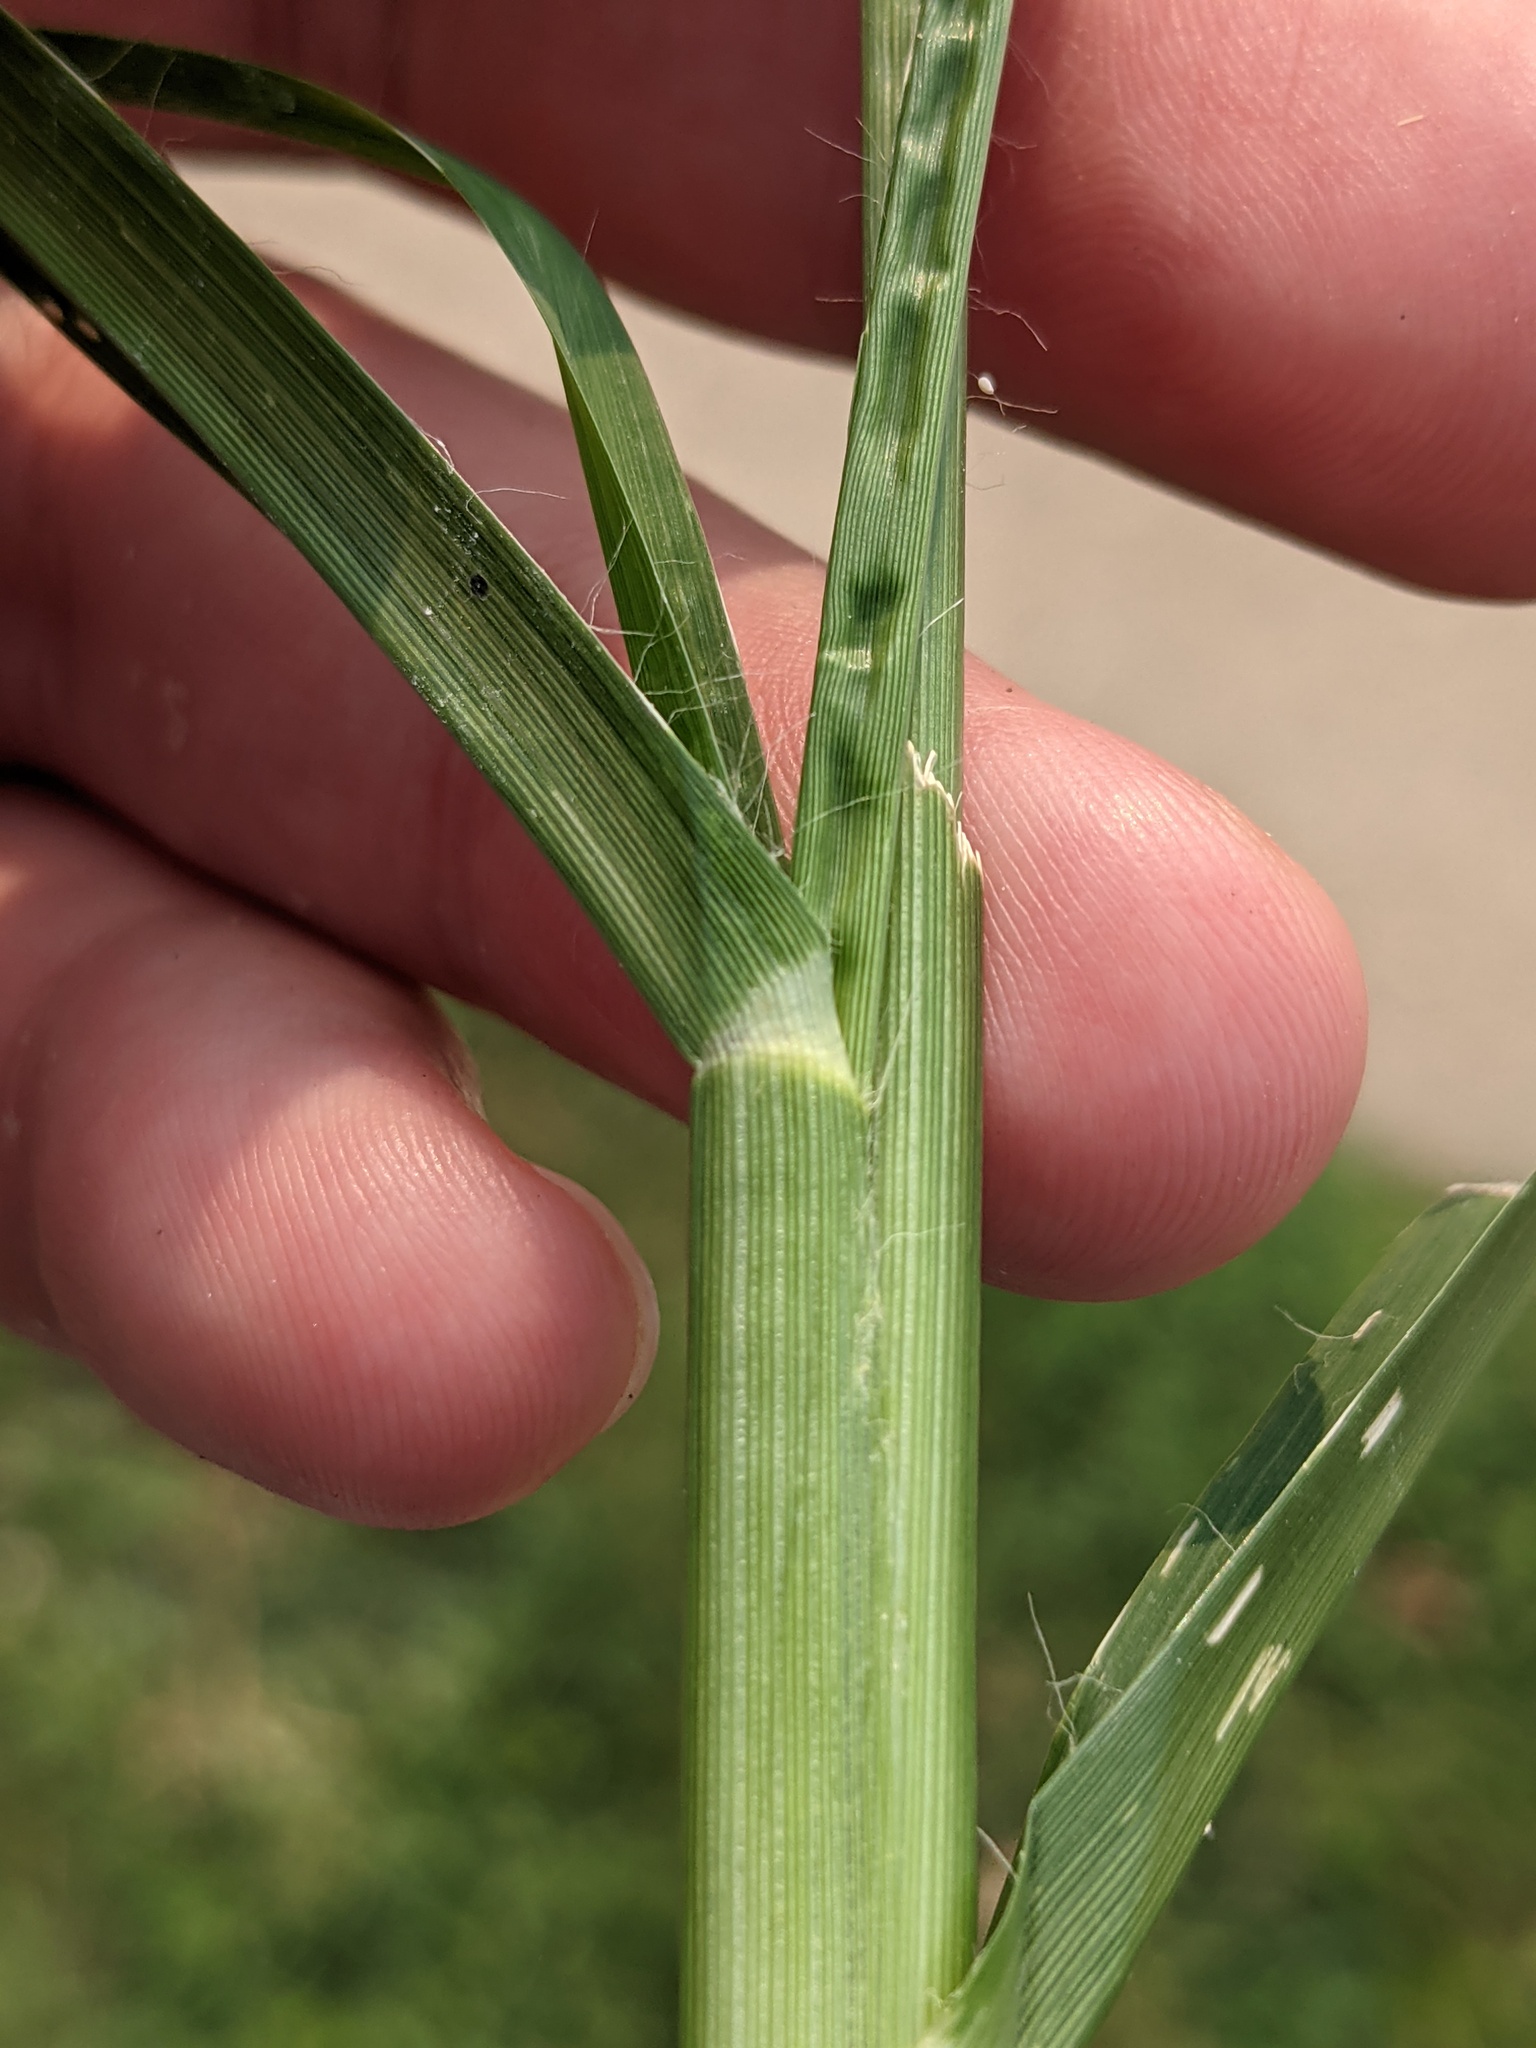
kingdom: Plantae
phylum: Tracheophyta
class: Liliopsida
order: Poales
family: Poaceae
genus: Eleusine
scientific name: Eleusine indica
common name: Yard-grass
